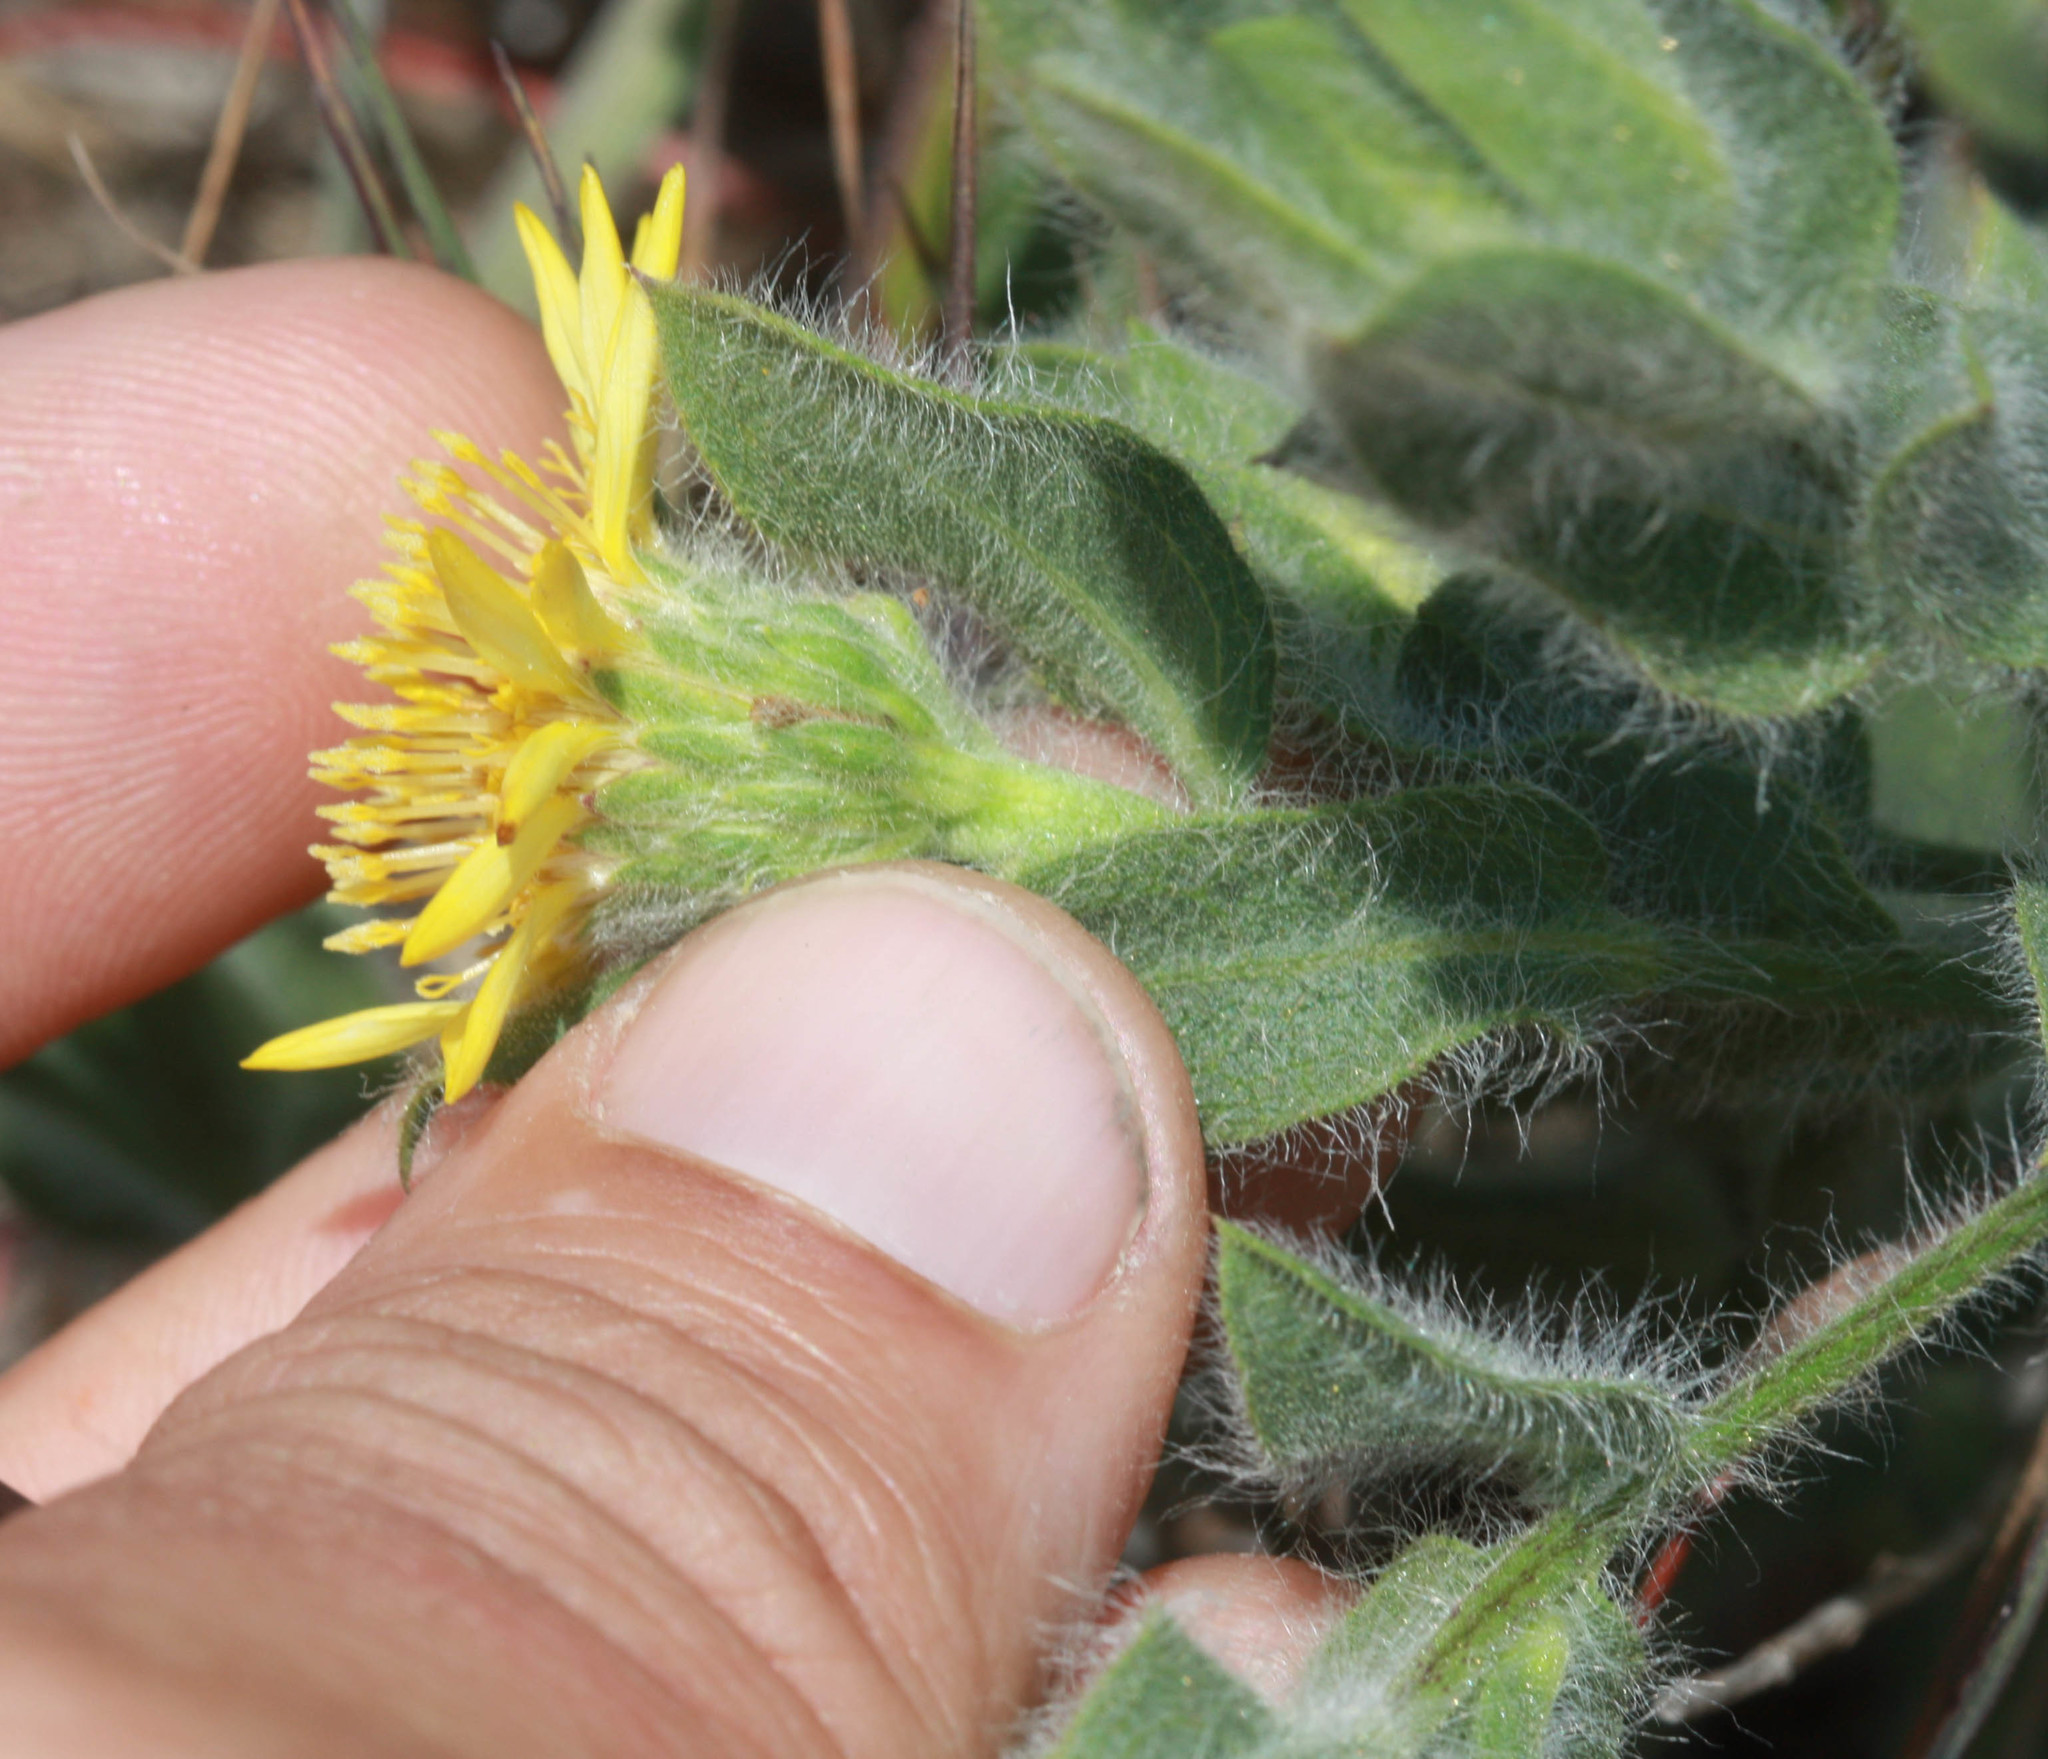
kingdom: Plantae
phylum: Tracheophyta
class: Magnoliopsida
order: Asterales
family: Asteraceae
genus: Heterotheca
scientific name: Heterotheca bolanderi
